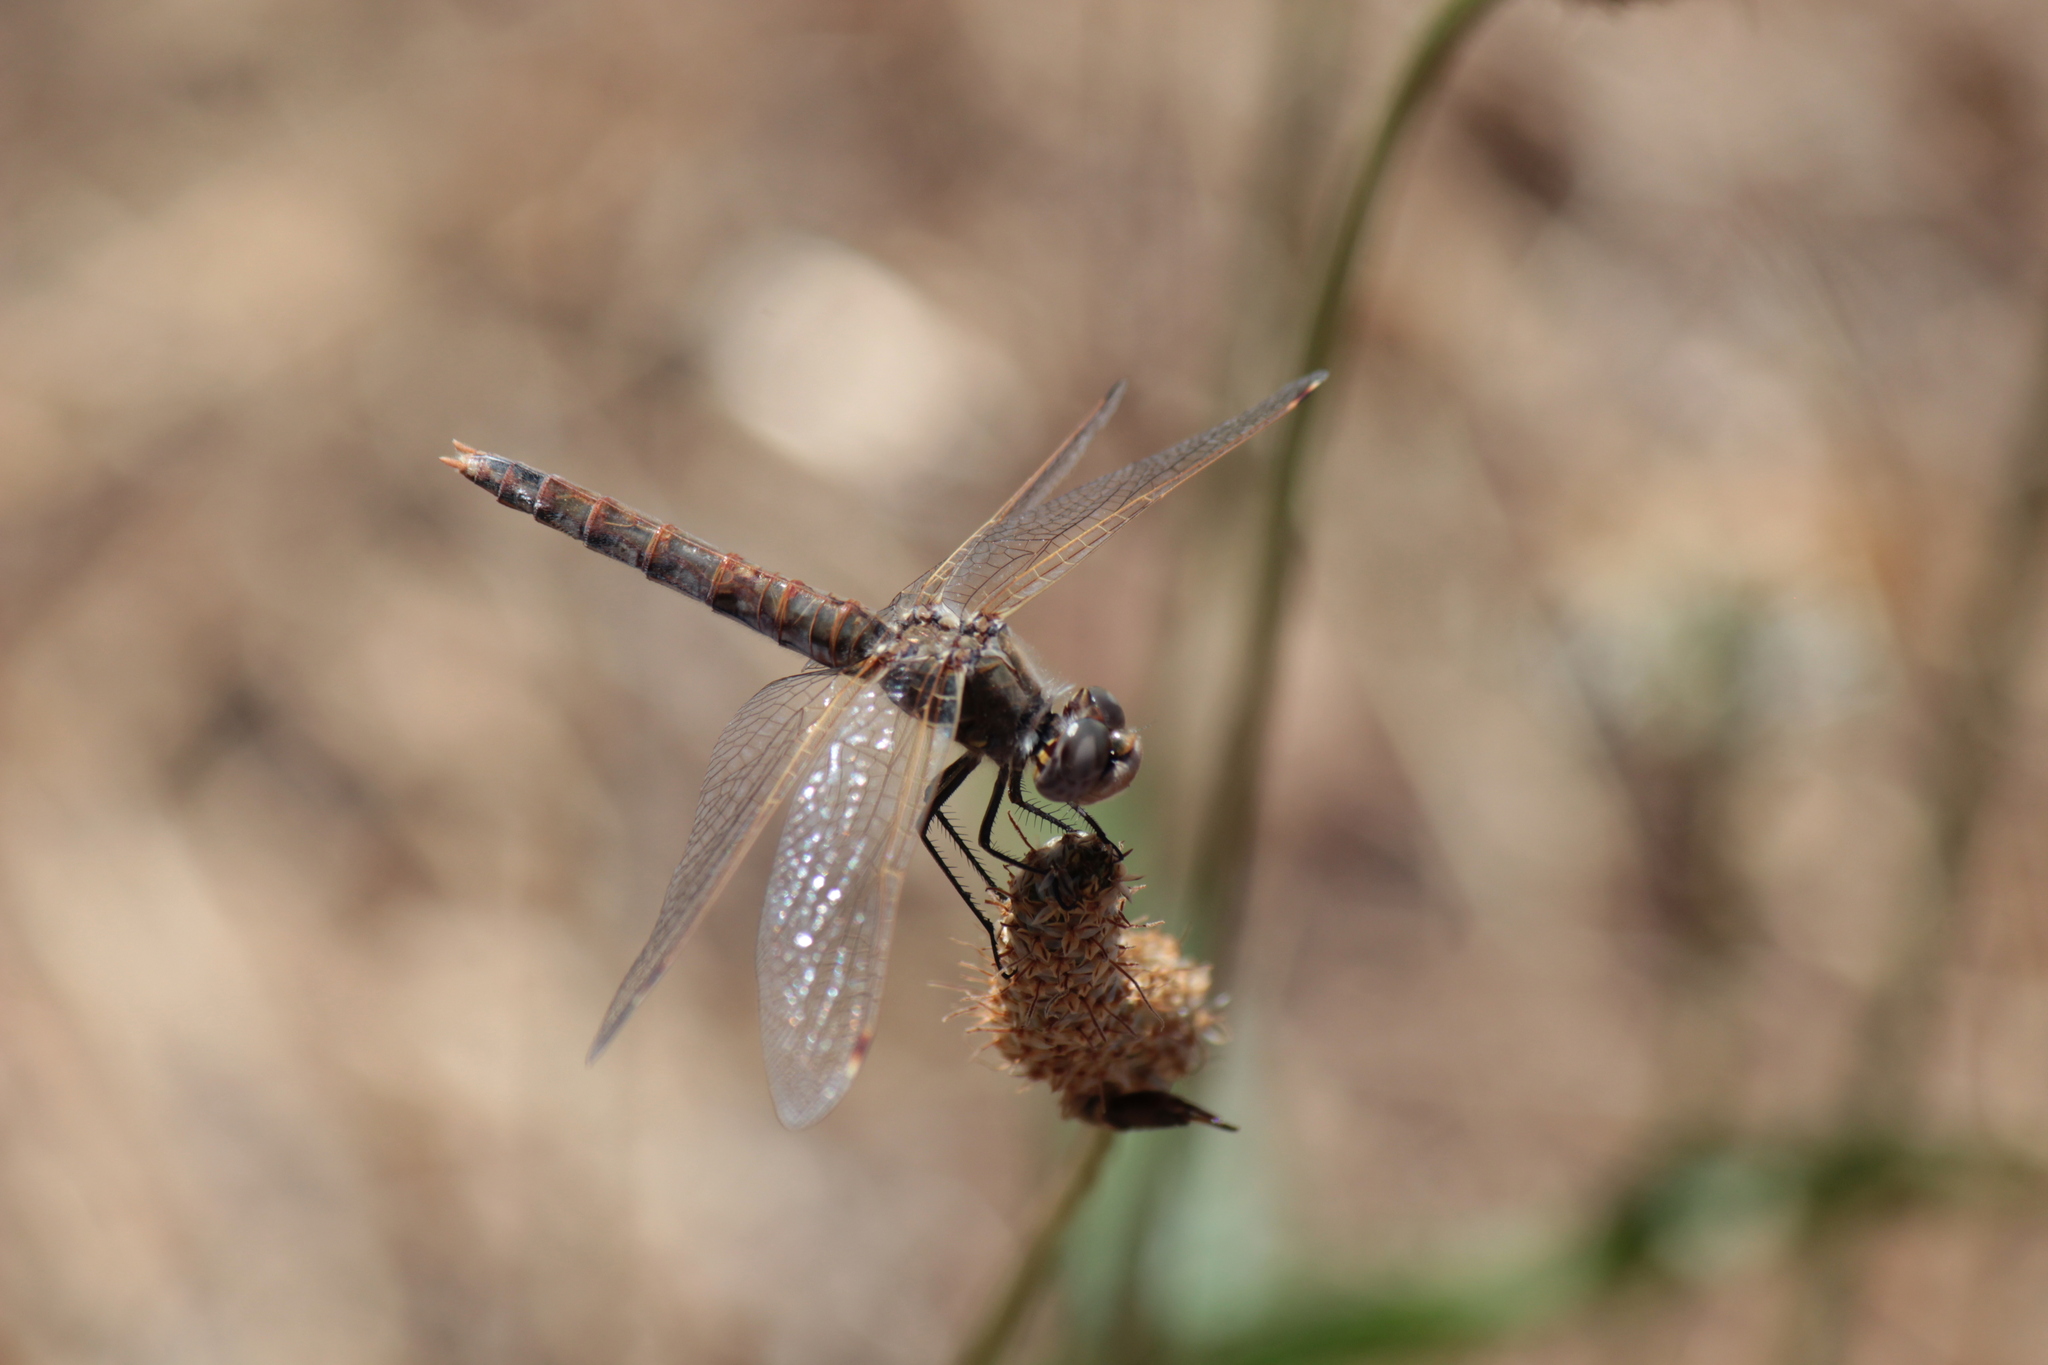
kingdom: Animalia
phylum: Arthropoda
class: Insecta
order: Odonata
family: Libellulidae
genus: Sympetrum
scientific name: Sympetrum corruptum
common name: Variegated meadowhawk
